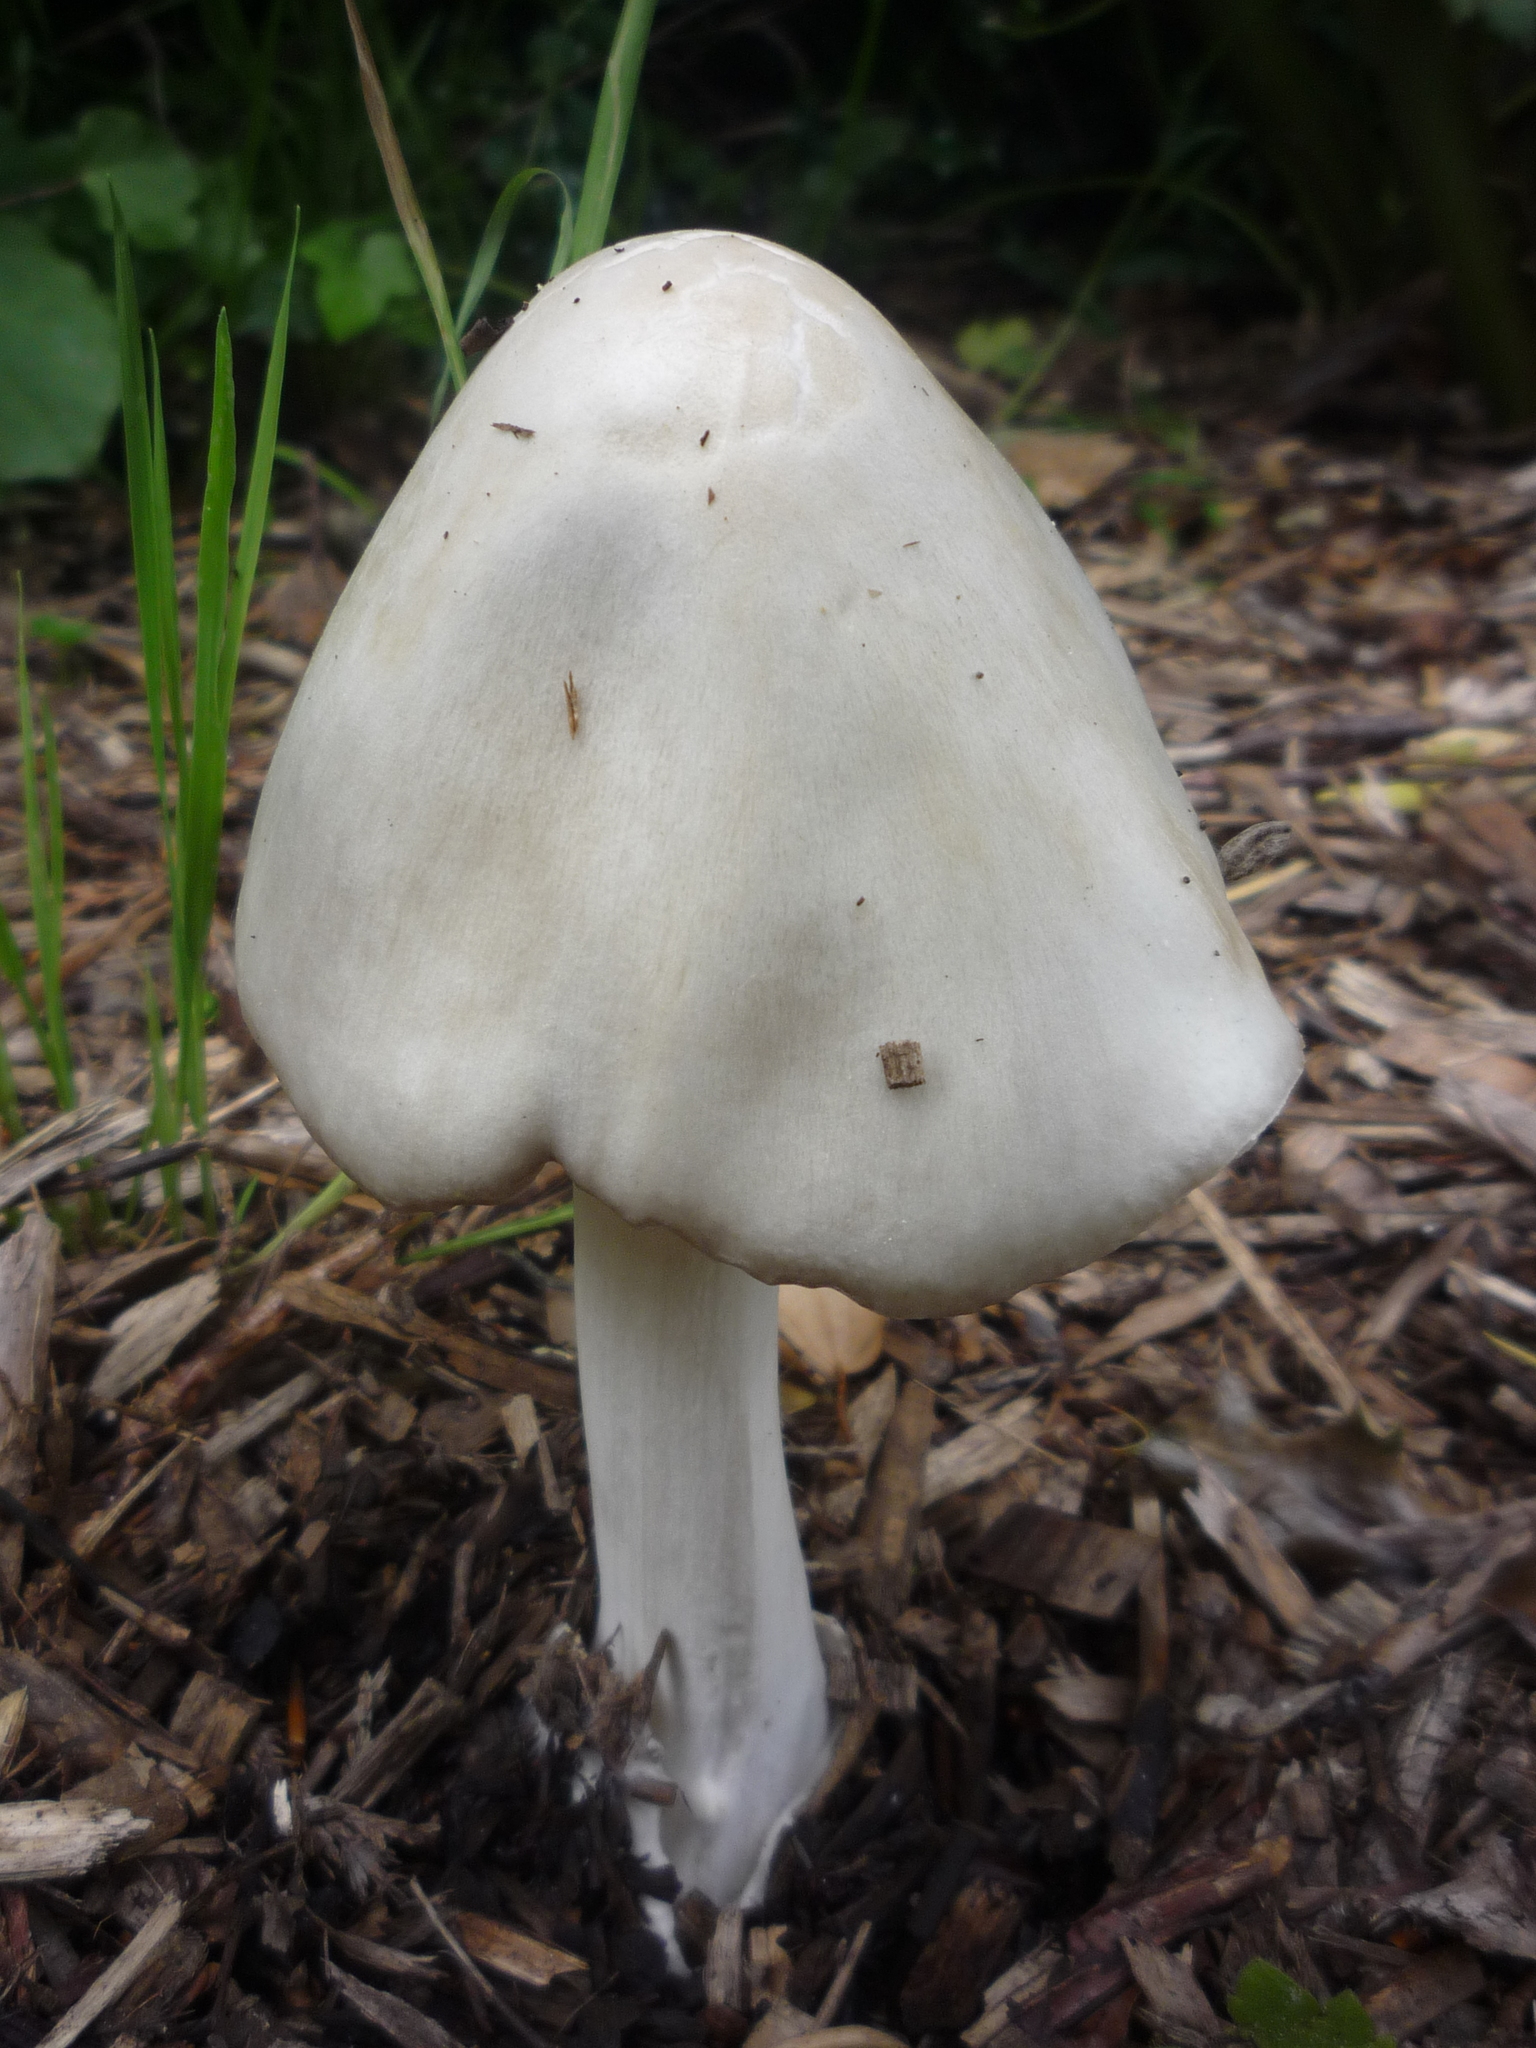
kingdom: Fungi
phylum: Basidiomycota
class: Agaricomycetes
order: Agaricales
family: Pluteaceae
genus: Volvopluteus
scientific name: Volvopluteus gloiocephalus
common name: Stubble rosegill
